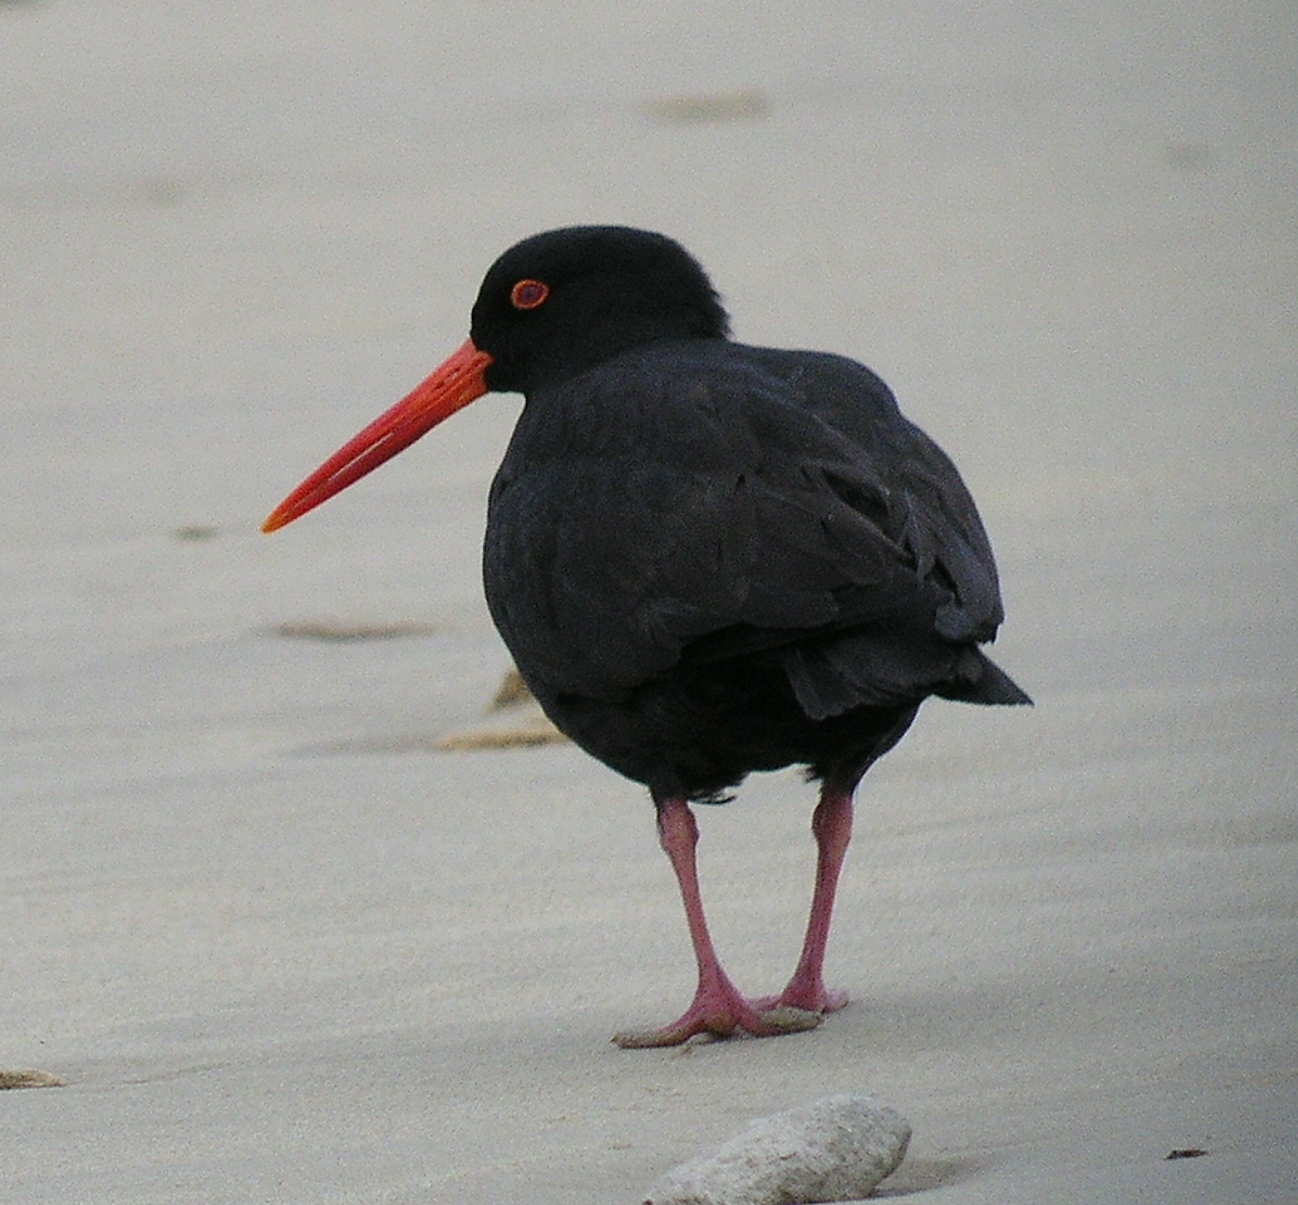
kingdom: Animalia
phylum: Chordata
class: Aves
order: Charadriiformes
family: Haematopodidae
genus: Haematopus
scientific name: Haematopus fuliginosus
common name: Sooty oystercatcher
